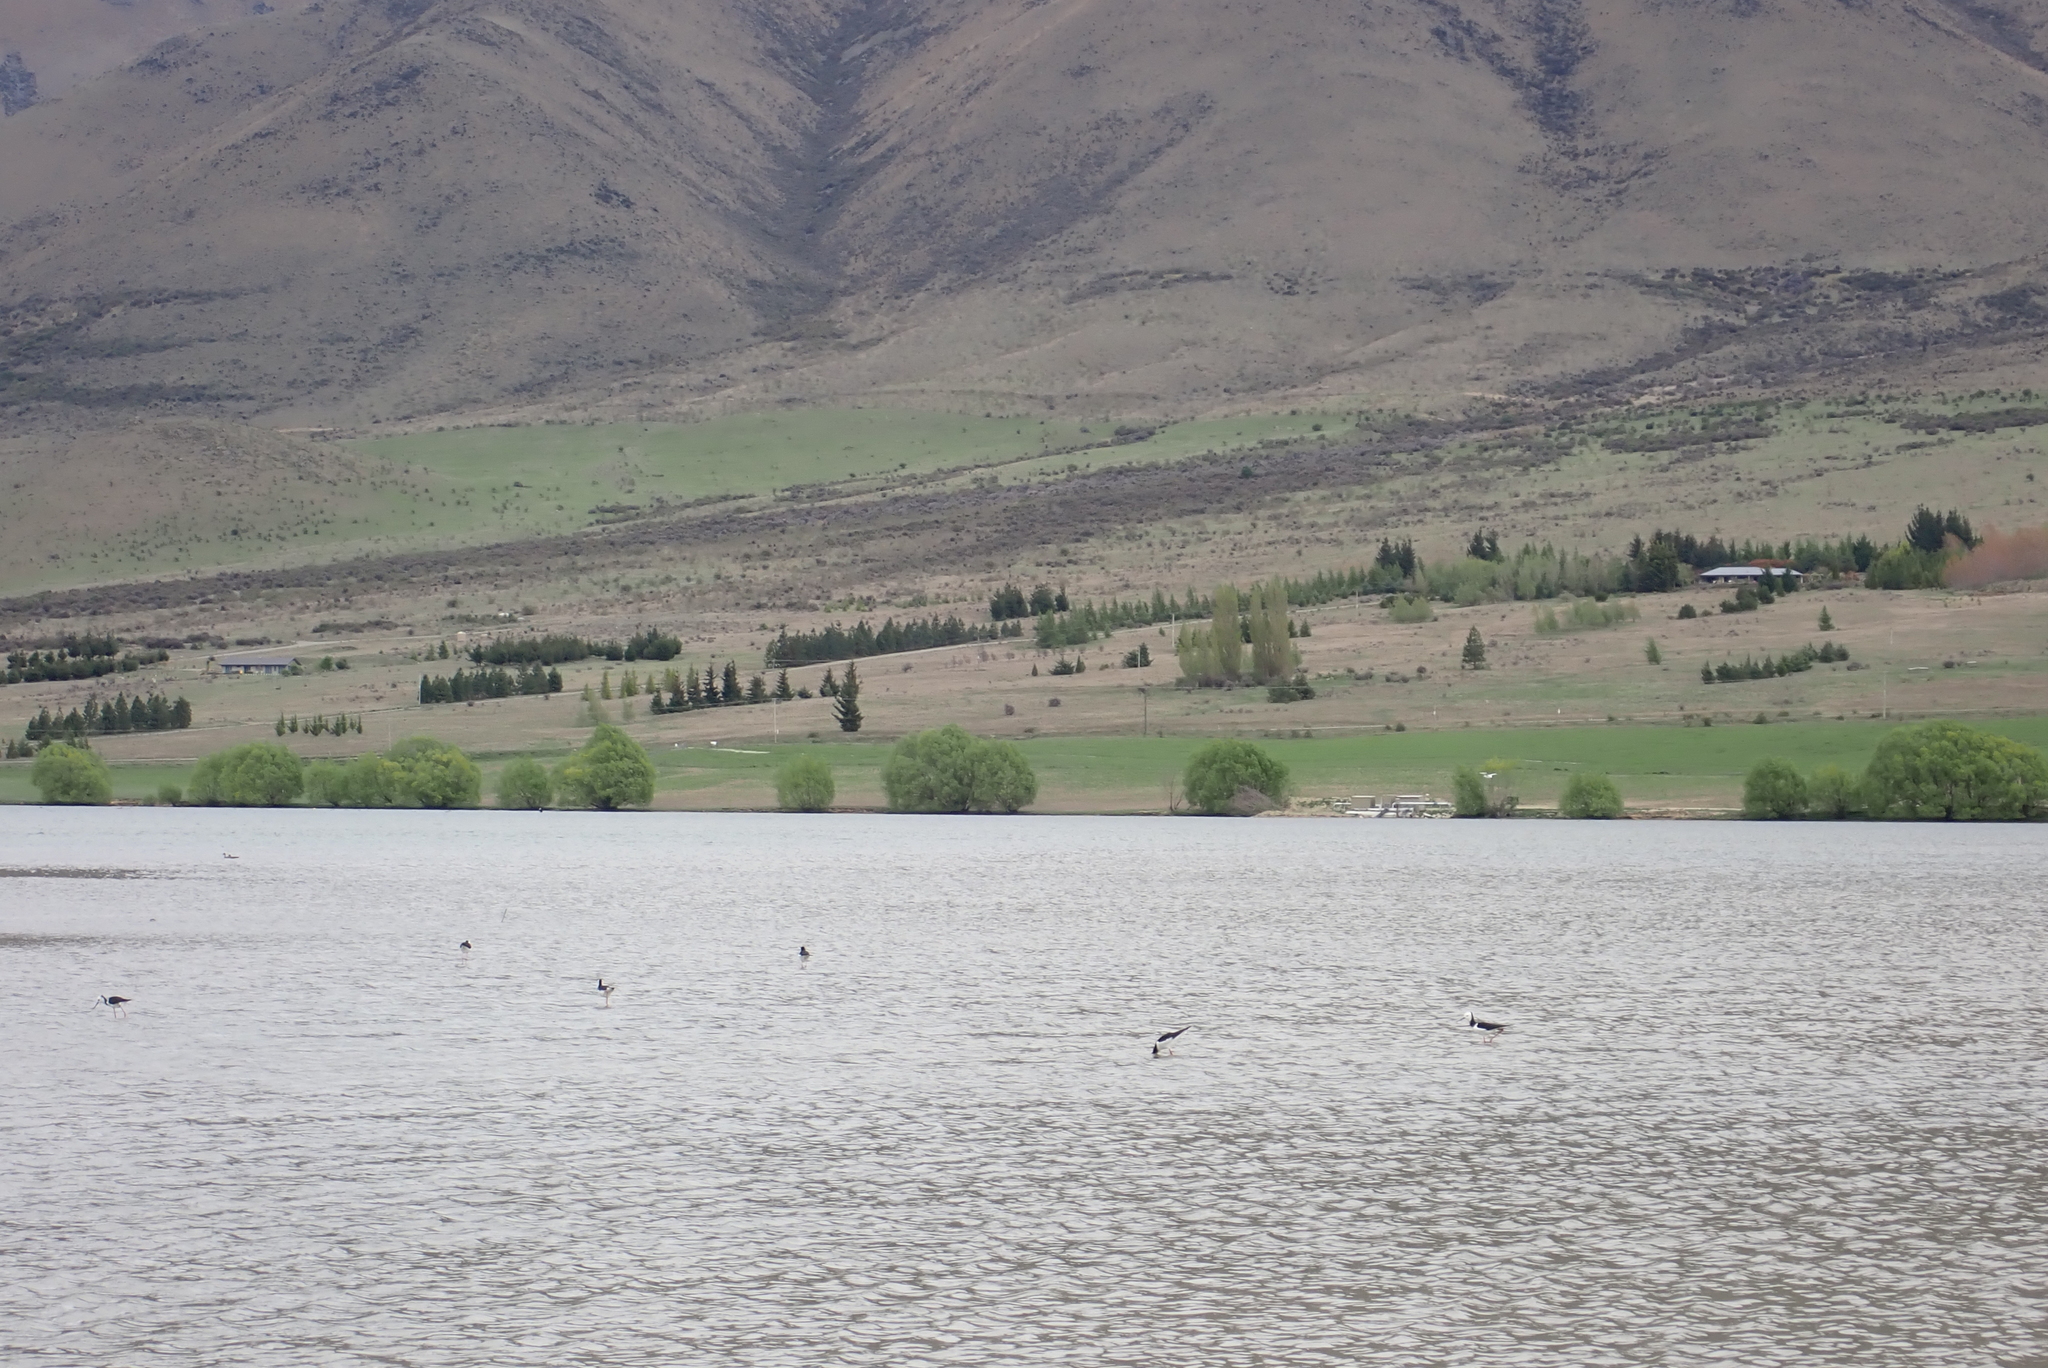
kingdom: Animalia
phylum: Chordata
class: Aves
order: Charadriiformes
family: Recurvirostridae
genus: Himantopus
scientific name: Himantopus leucocephalus
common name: White-headed stilt
